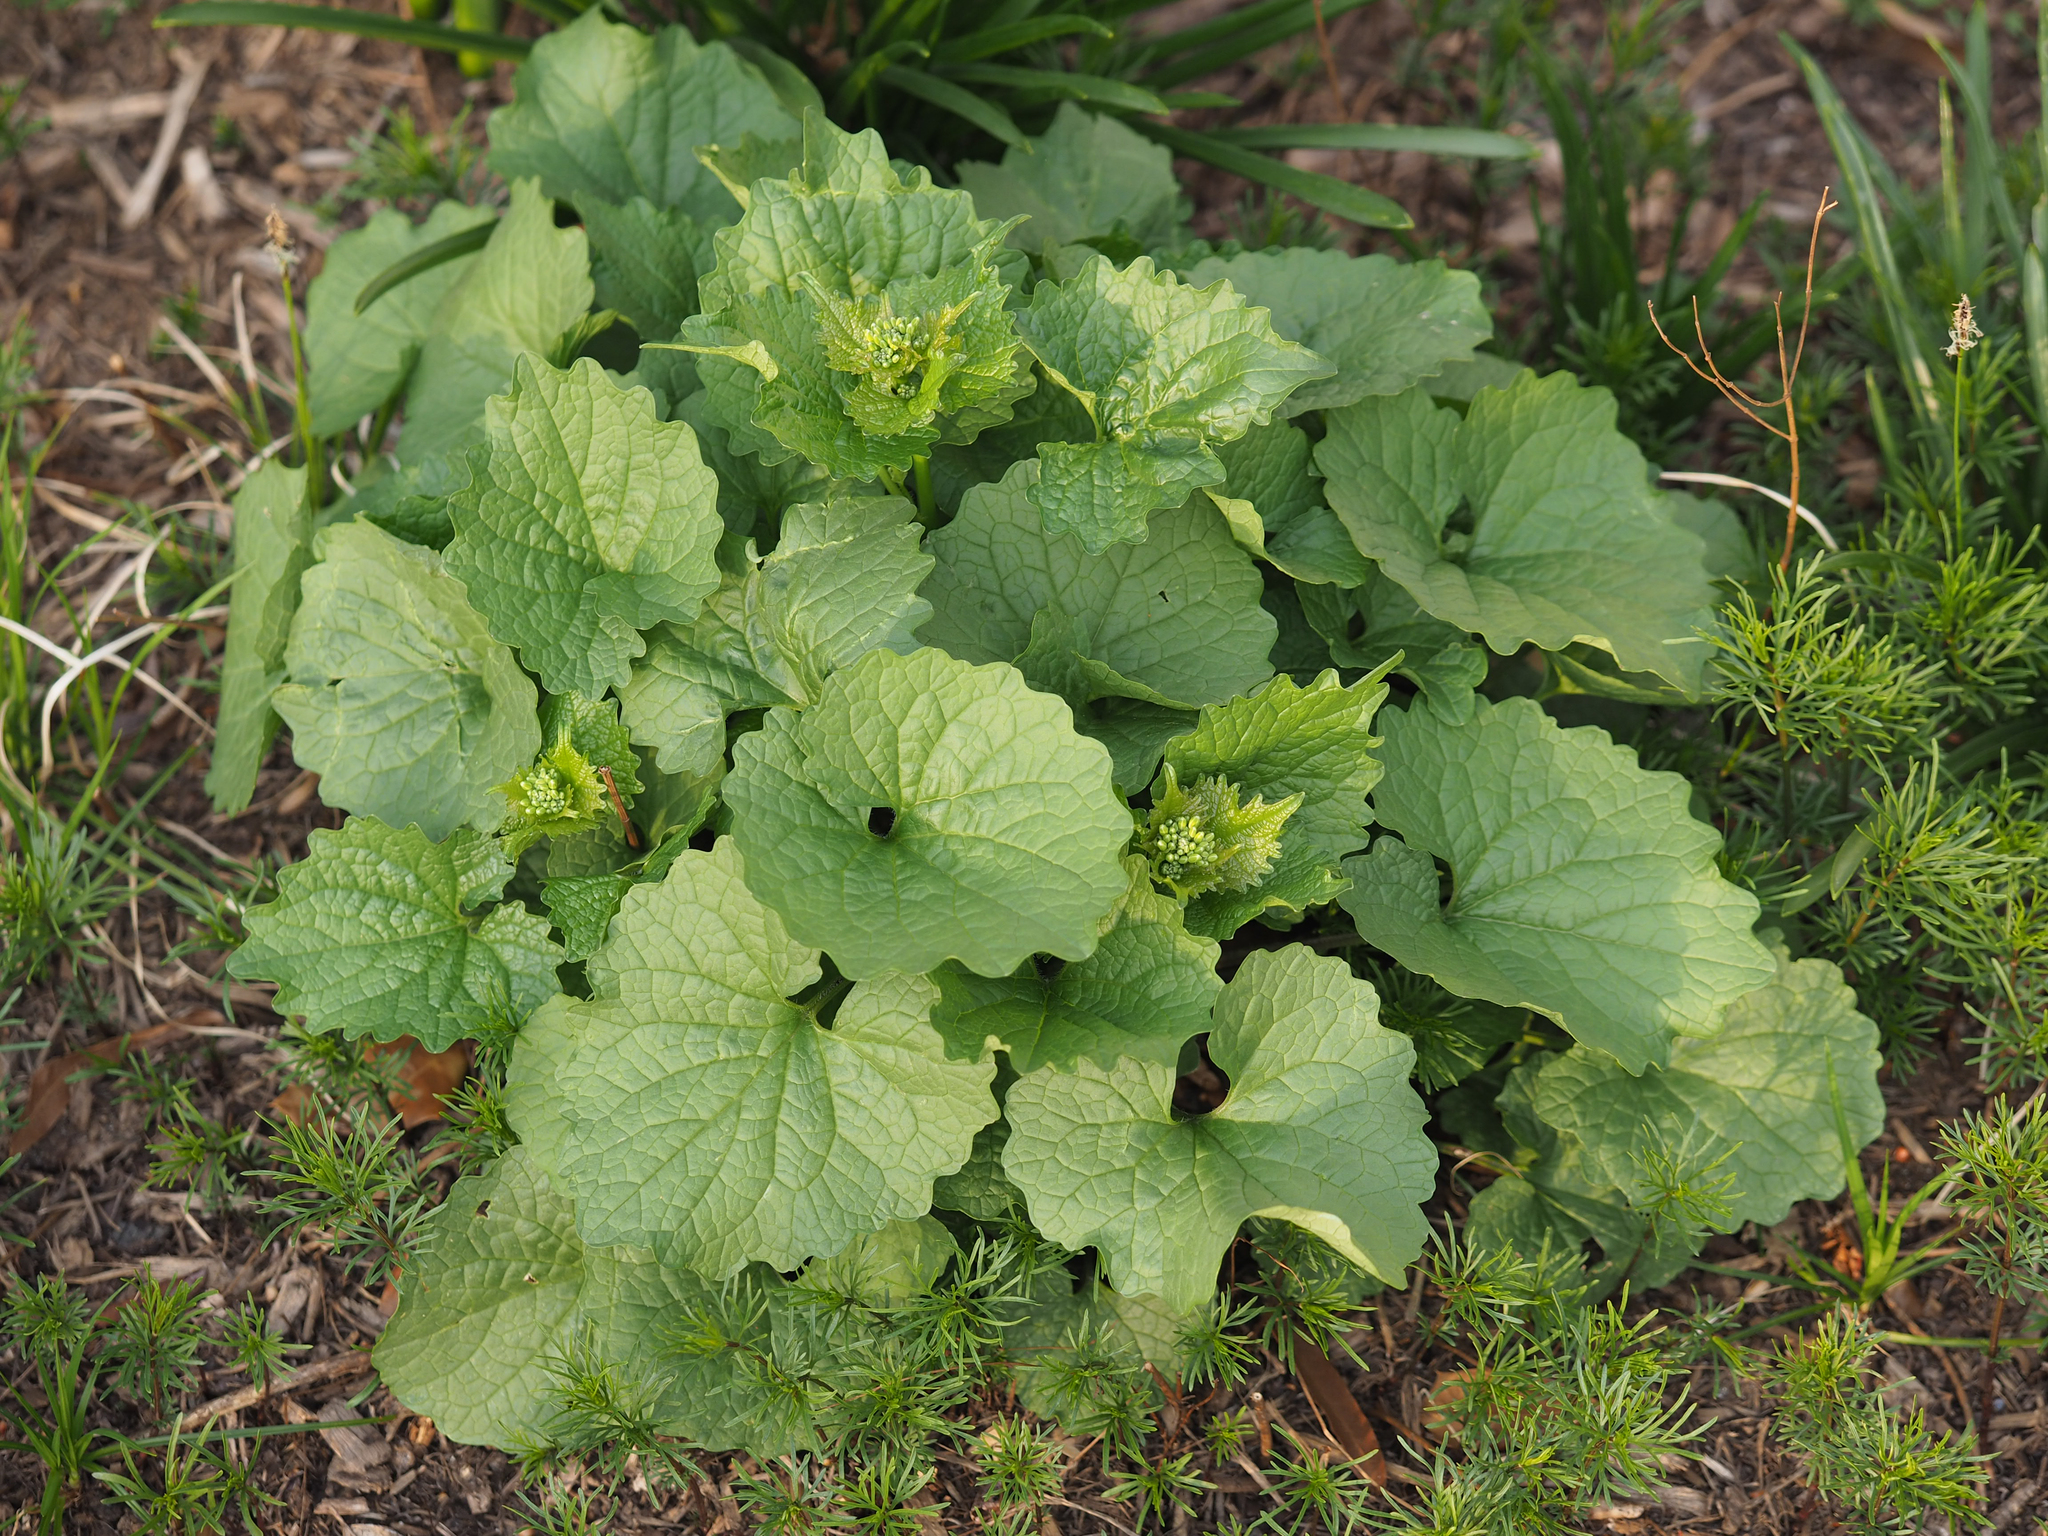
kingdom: Plantae
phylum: Tracheophyta
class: Magnoliopsida
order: Brassicales
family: Brassicaceae
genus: Alliaria
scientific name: Alliaria petiolata
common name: Garlic mustard
